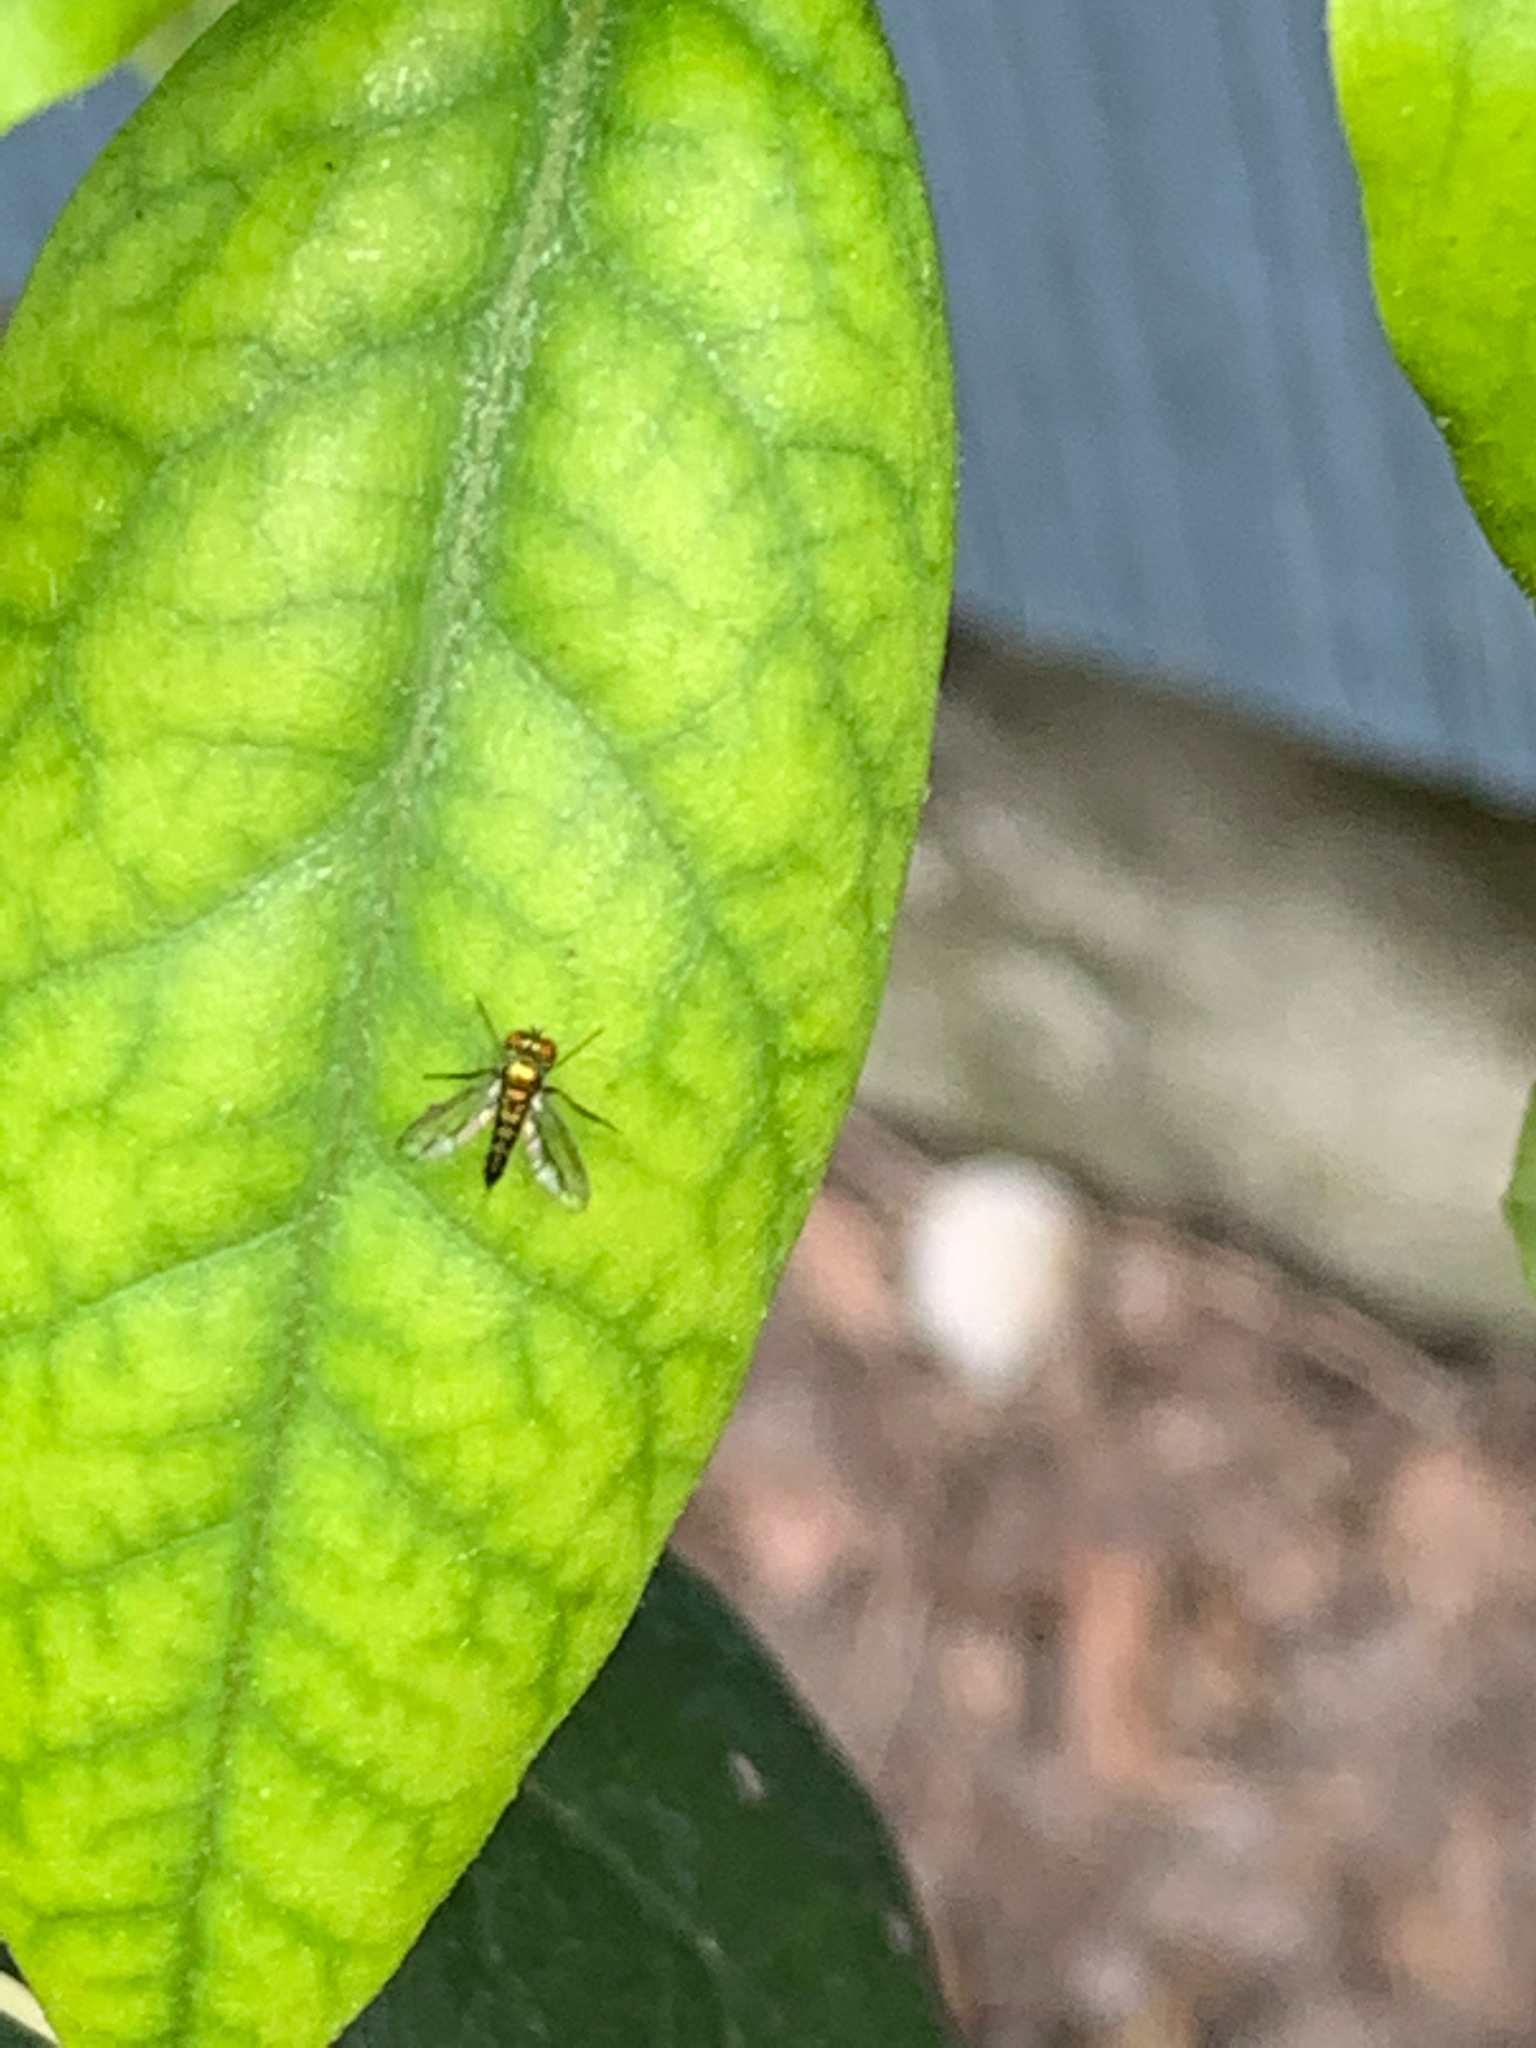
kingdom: Animalia
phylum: Arthropoda
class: Insecta
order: Diptera
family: Dolichopodidae
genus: Condylostylus
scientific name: Condylostylus
